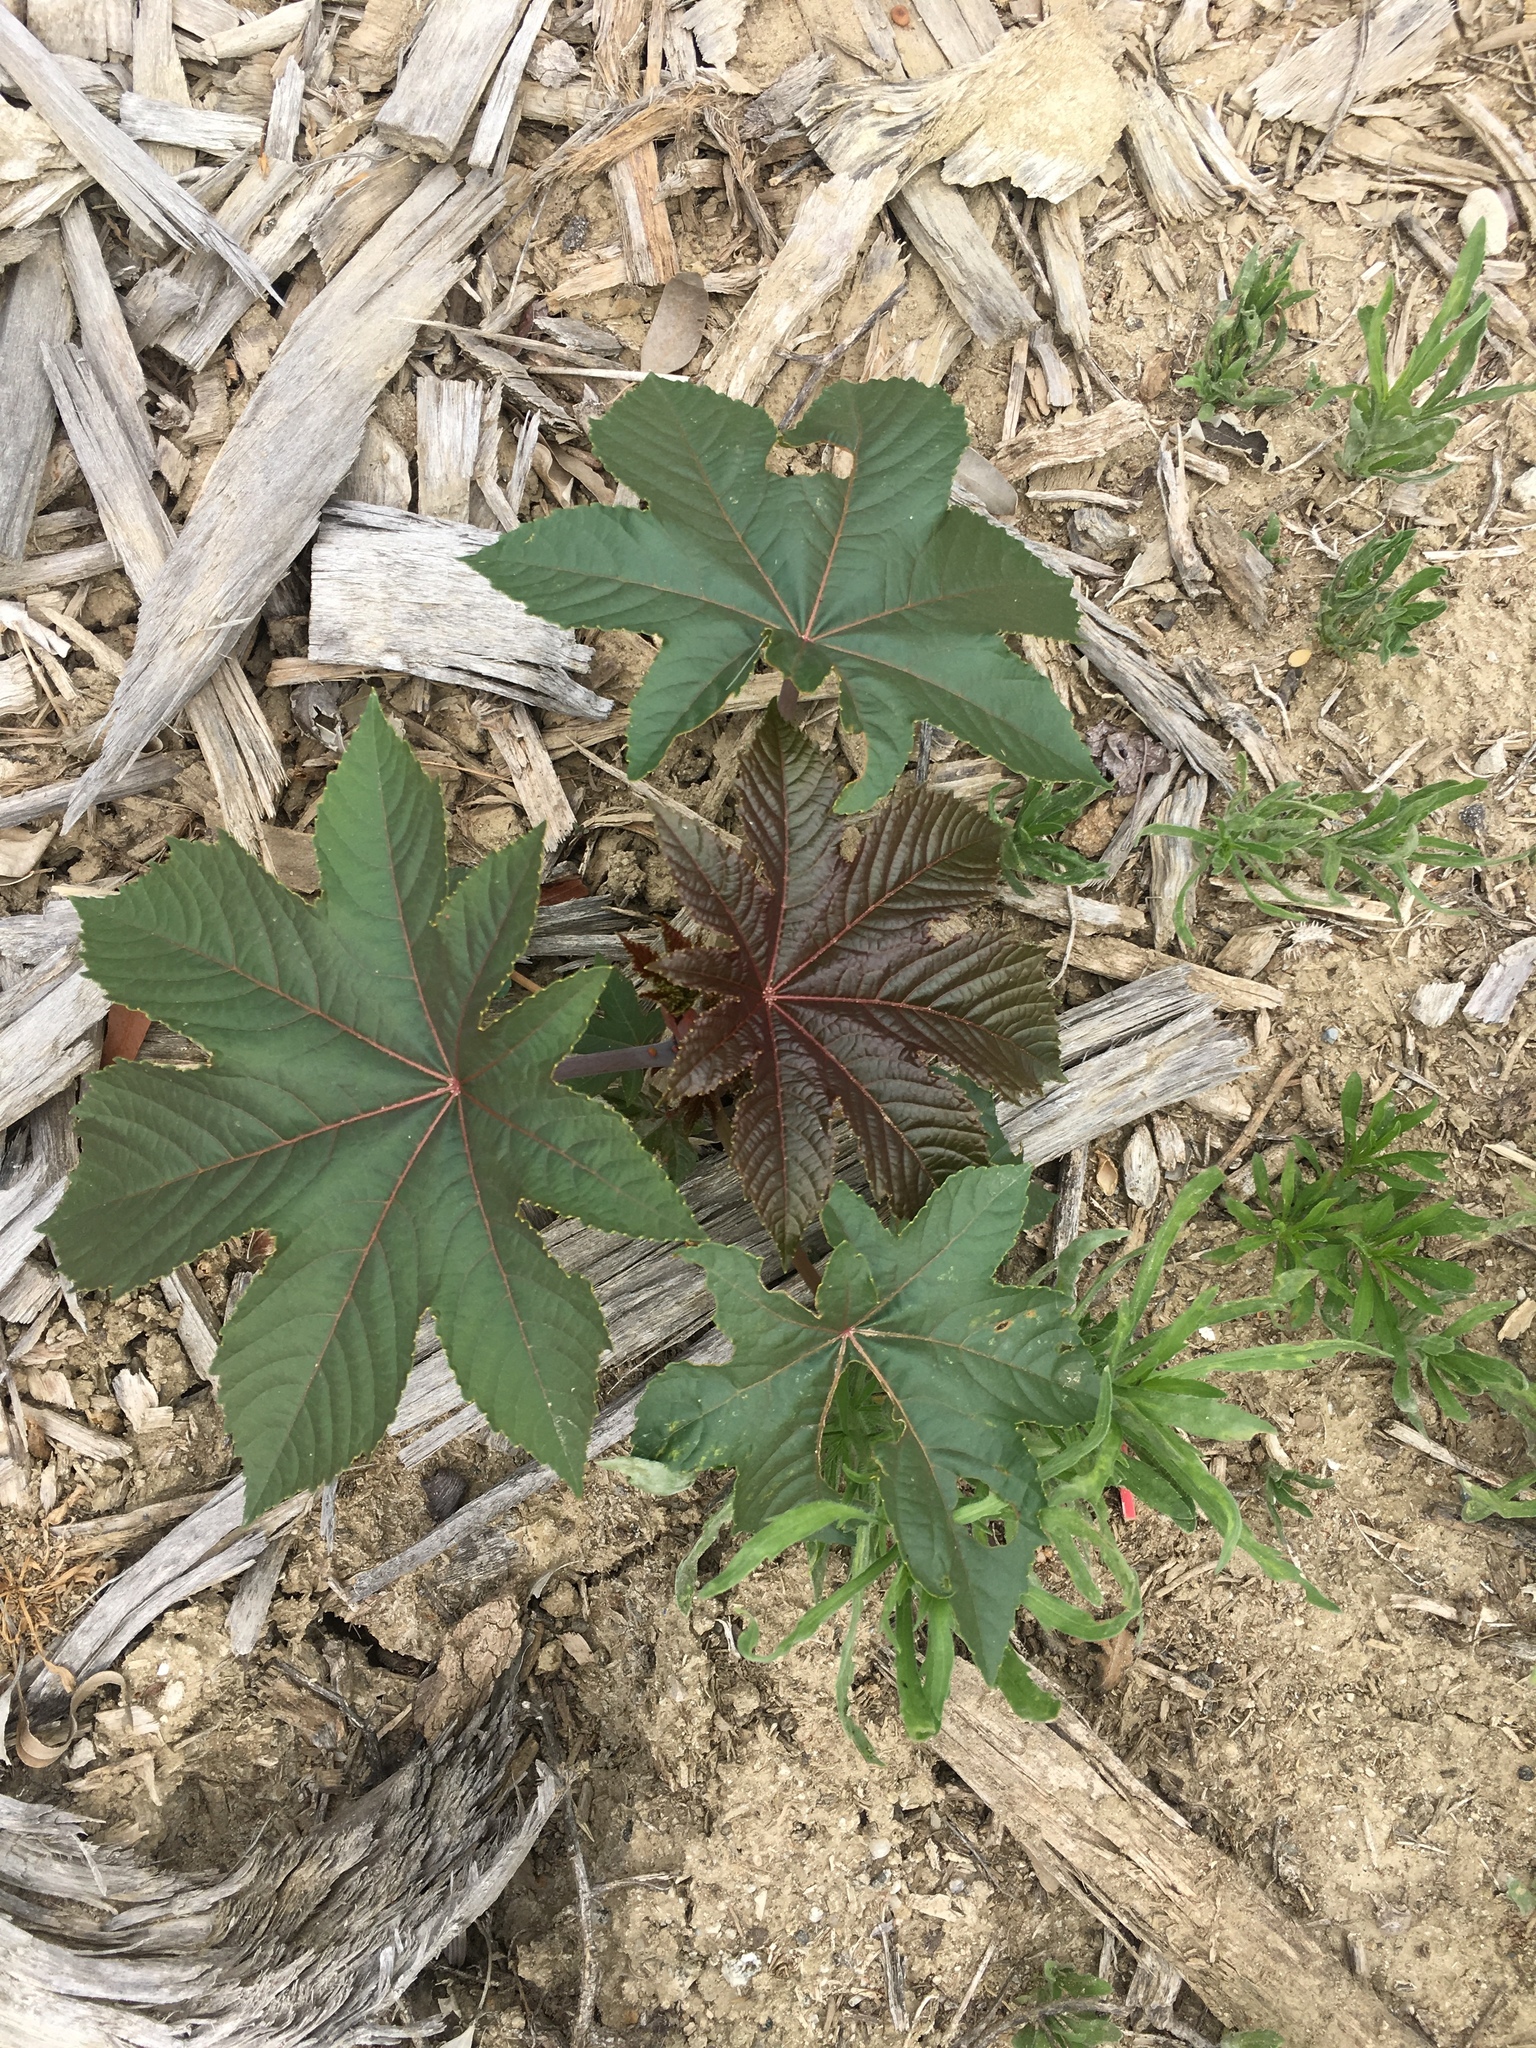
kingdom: Plantae
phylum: Tracheophyta
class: Magnoliopsida
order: Malpighiales
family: Euphorbiaceae
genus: Ricinus
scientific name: Ricinus communis
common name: Castor-oil-plant
